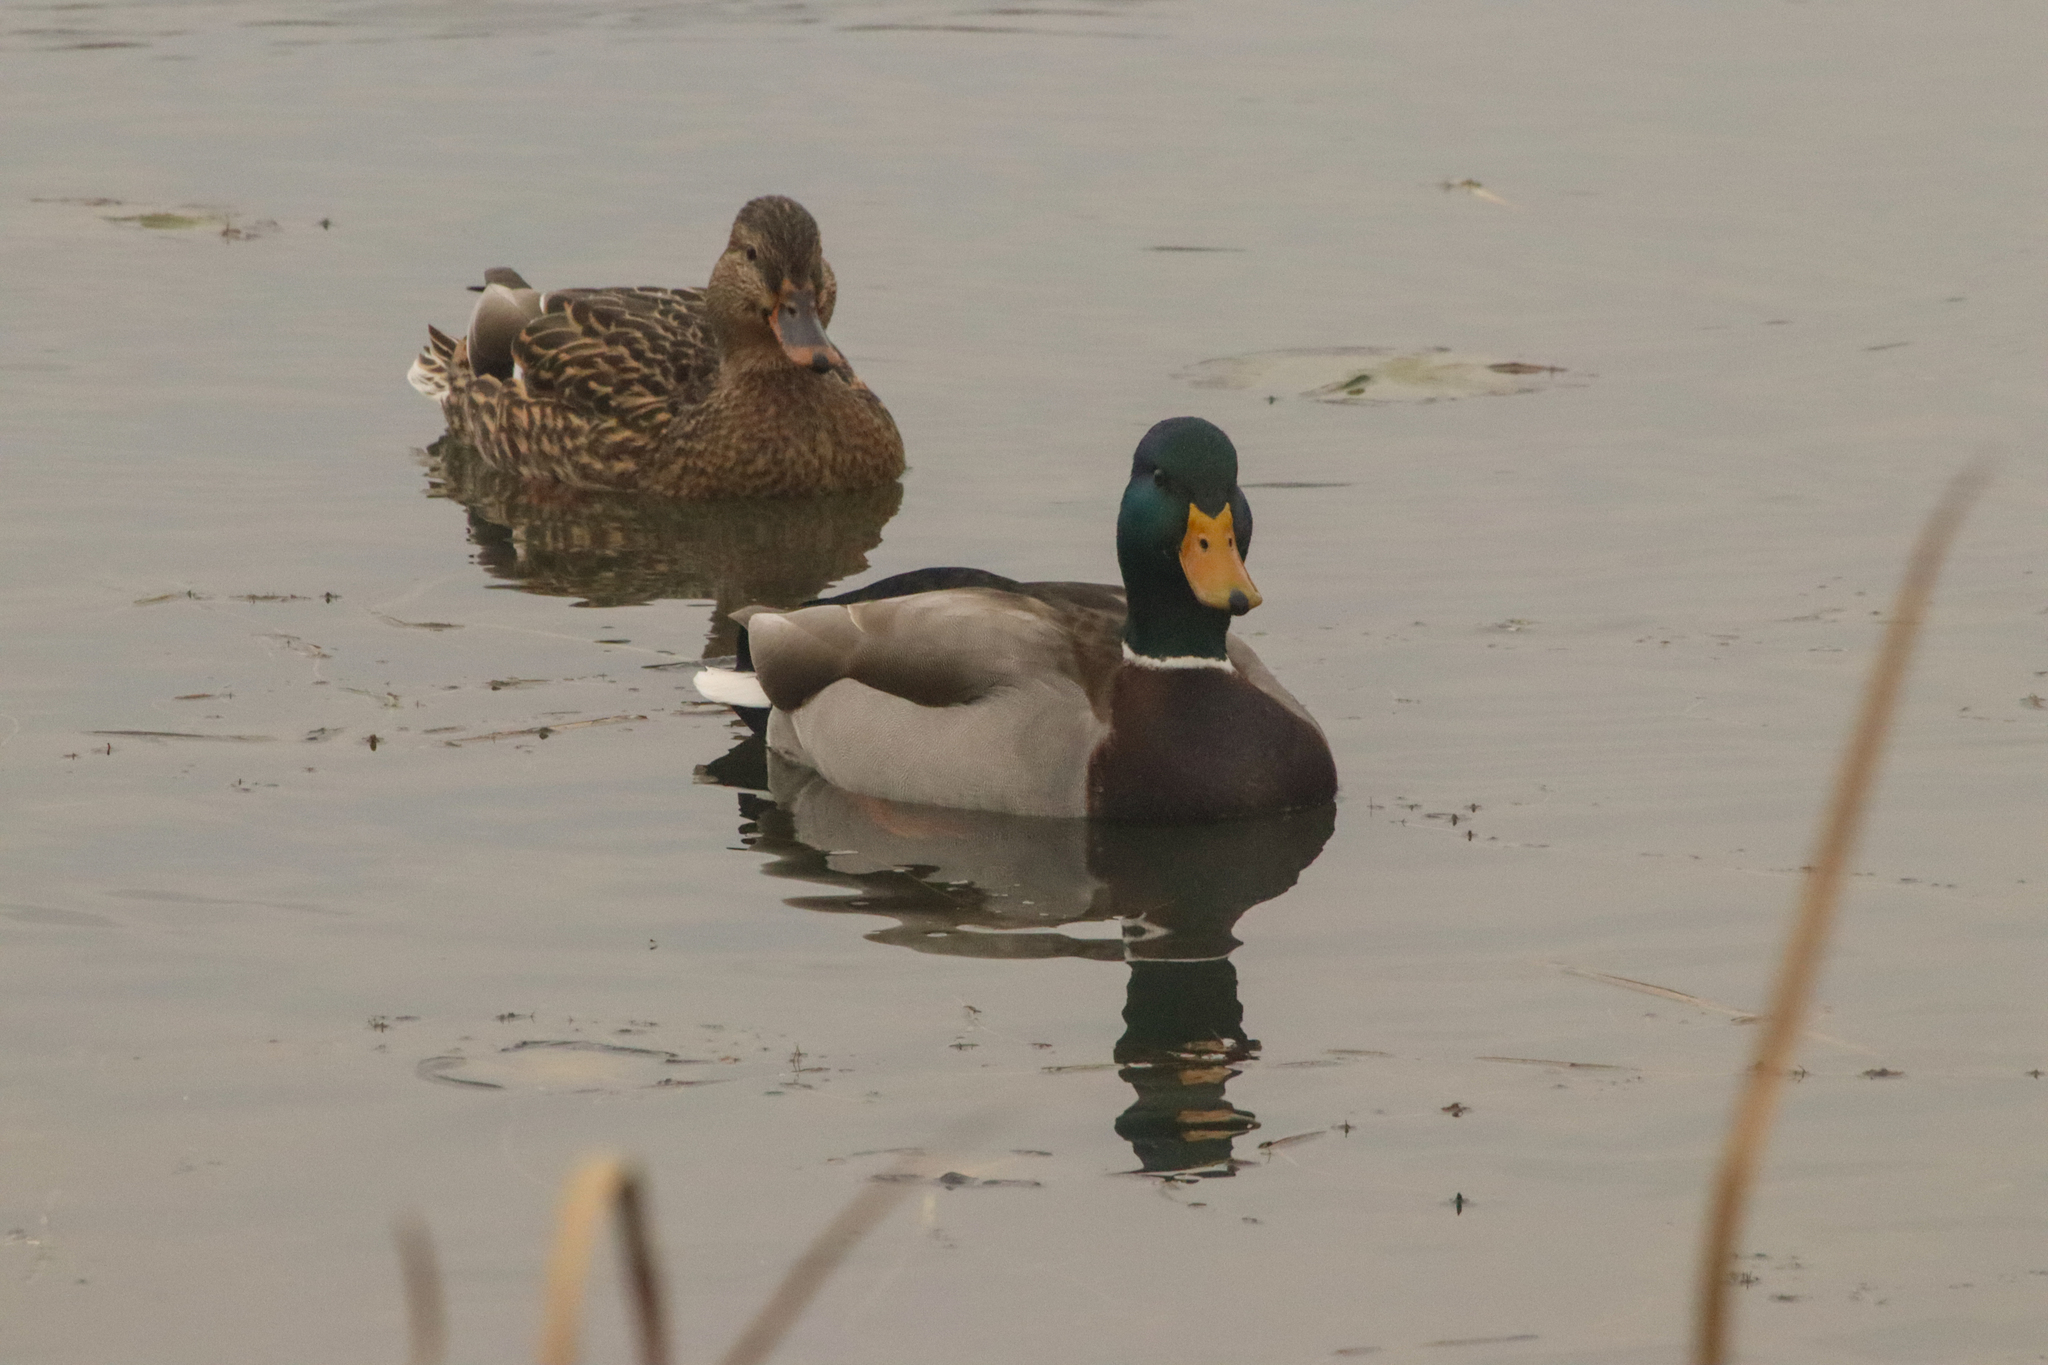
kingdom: Animalia
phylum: Chordata
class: Aves
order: Anseriformes
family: Anatidae
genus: Anas
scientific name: Anas platyrhynchos
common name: Mallard
